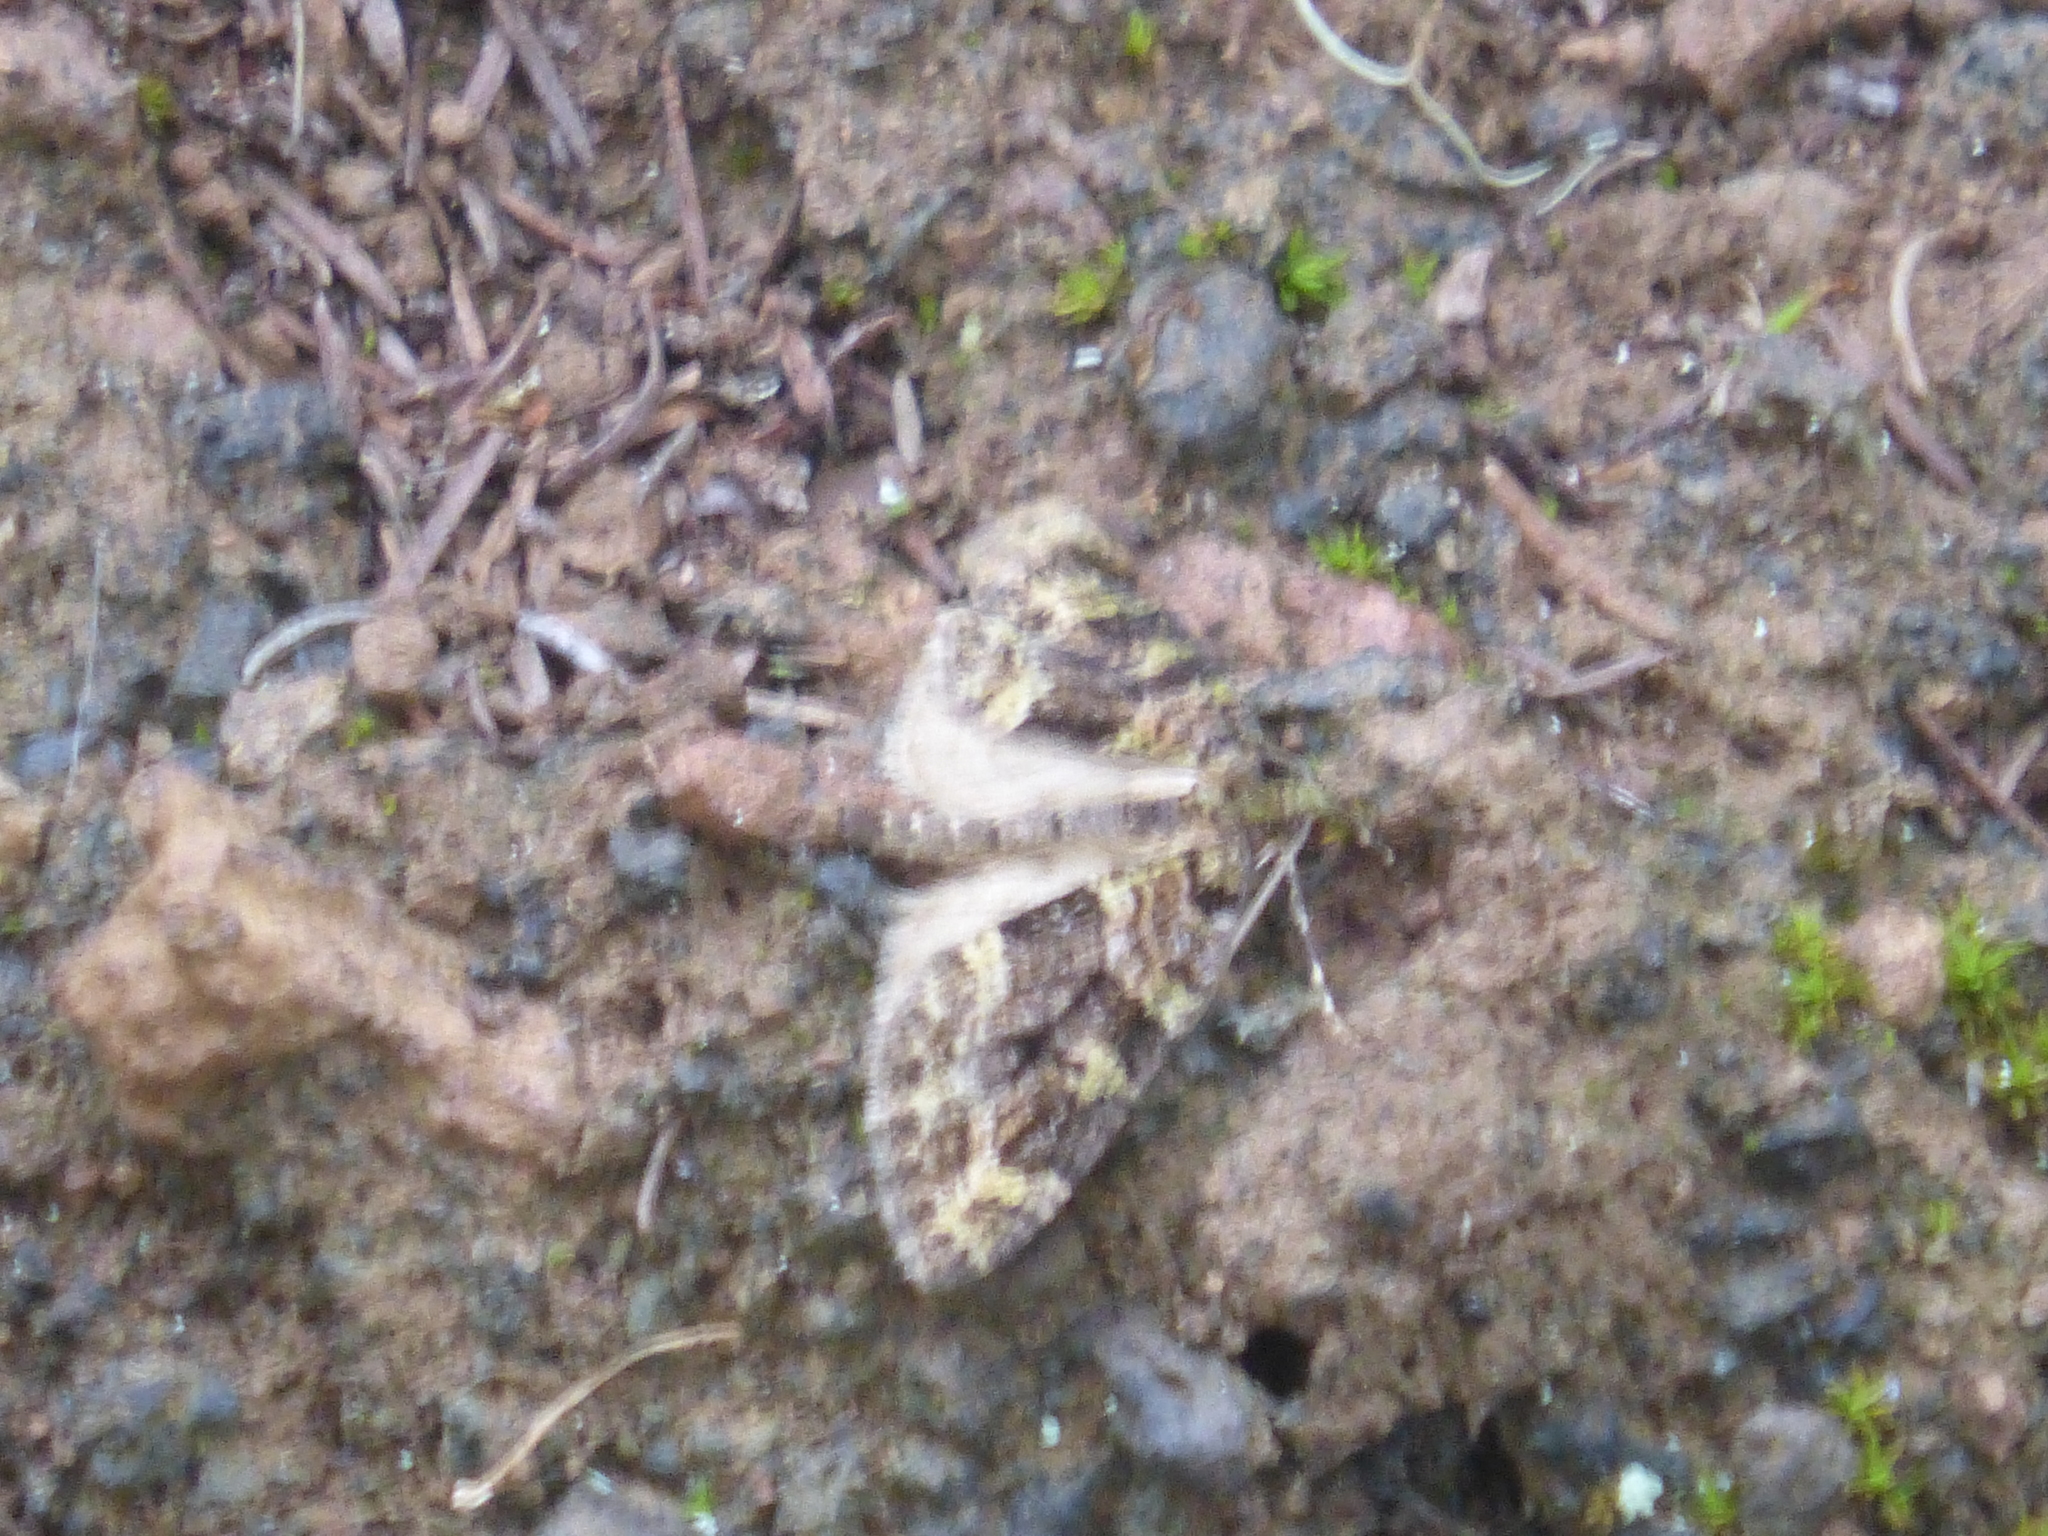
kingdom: Animalia
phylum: Arthropoda
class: Insecta
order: Lepidoptera
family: Geometridae
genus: Episauris
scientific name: Episauris kiliani
